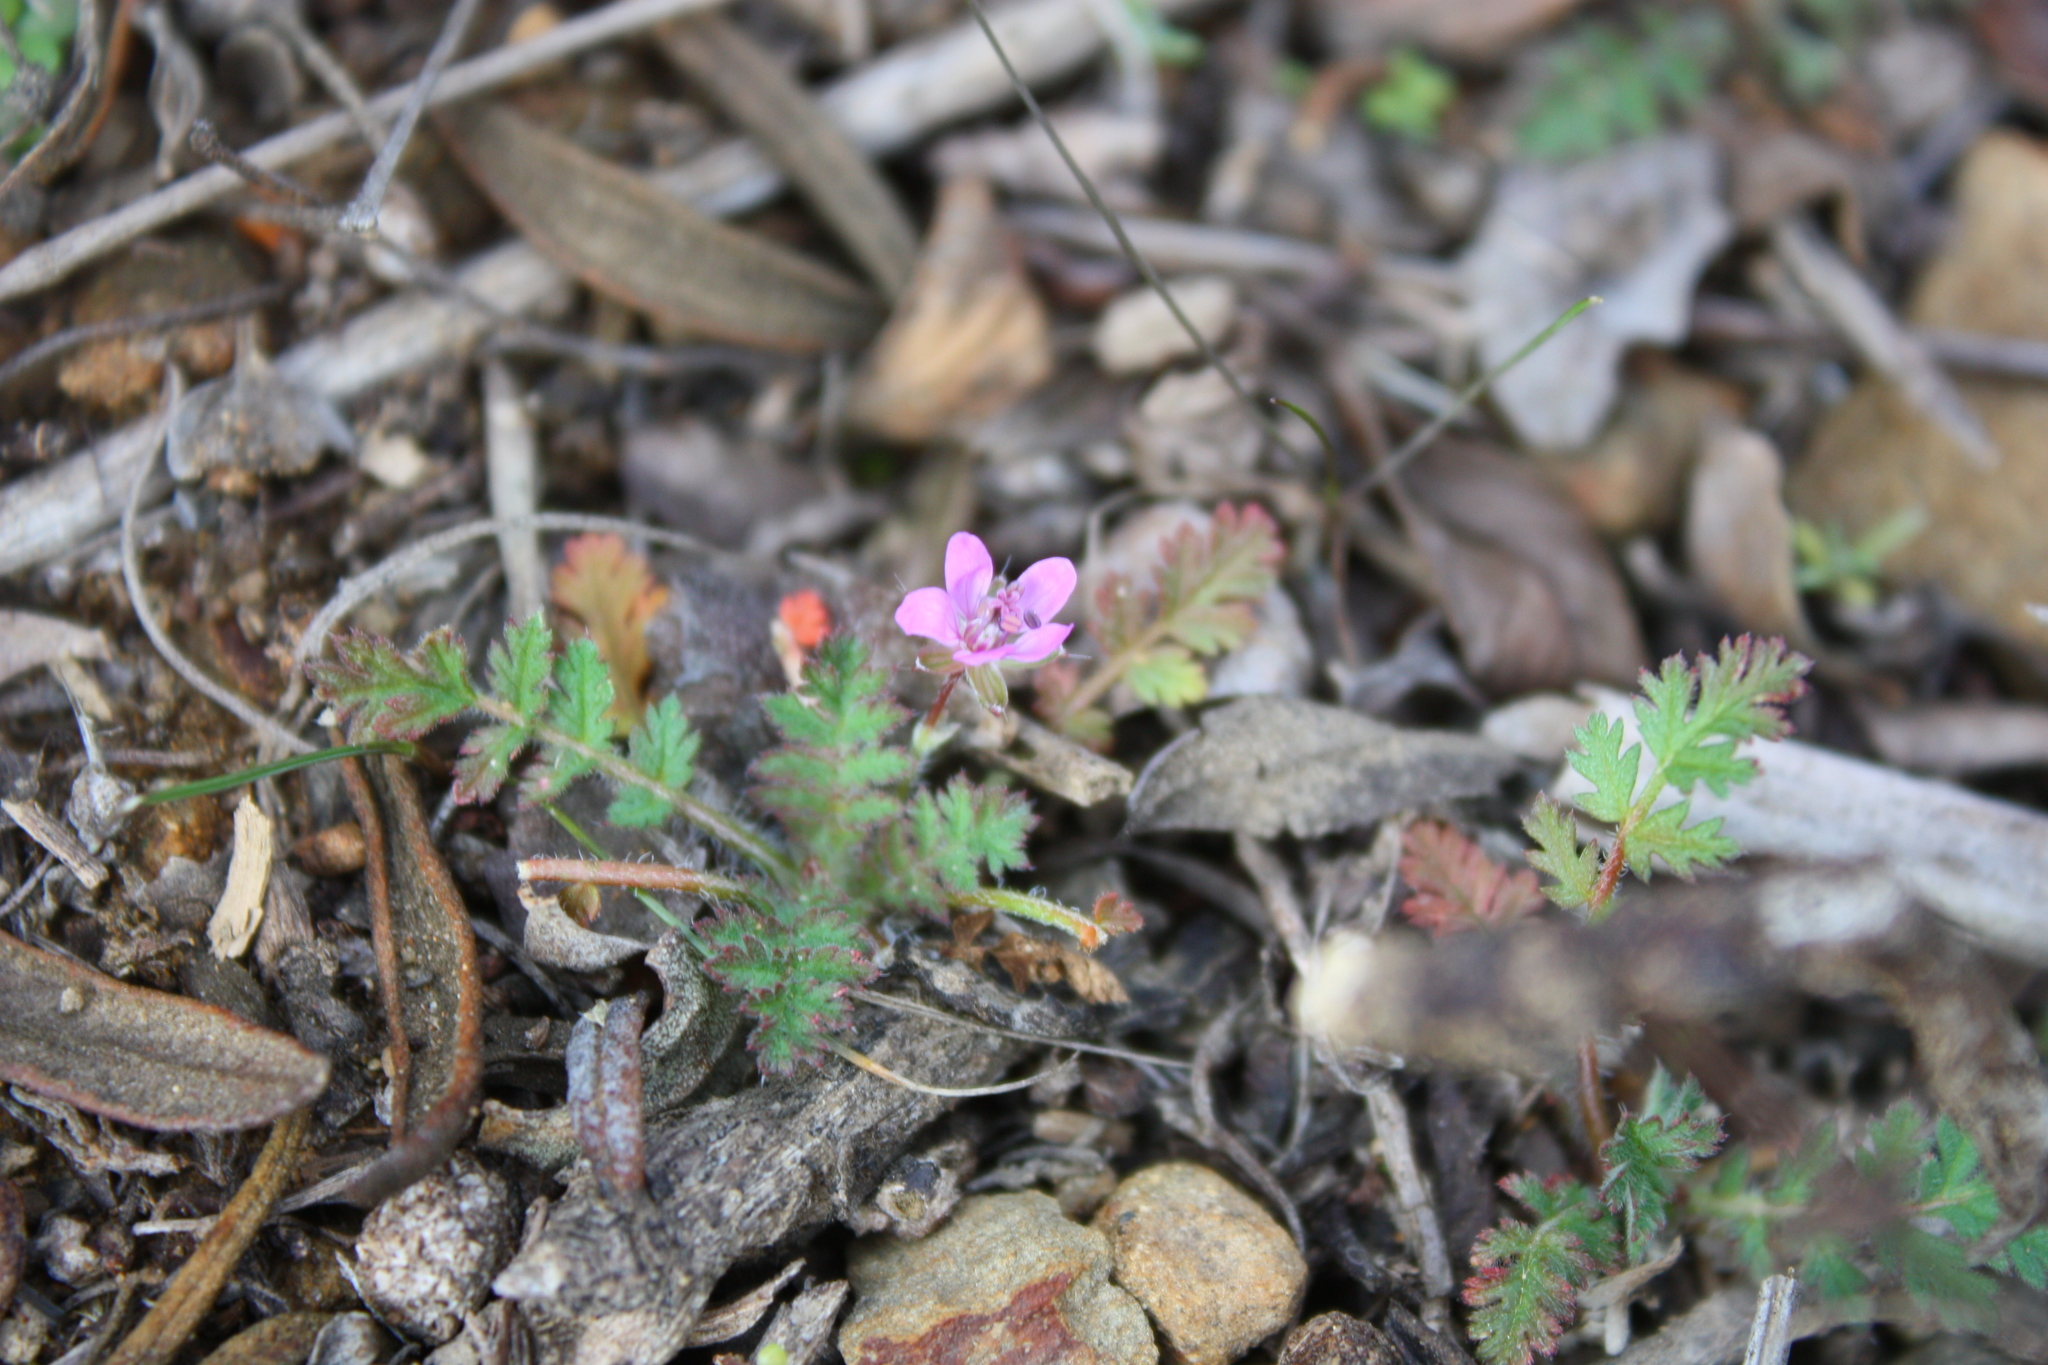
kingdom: Plantae
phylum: Tracheophyta
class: Magnoliopsida
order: Geraniales
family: Geraniaceae
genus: Erodium
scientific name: Erodium cicutarium
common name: Common stork's-bill
